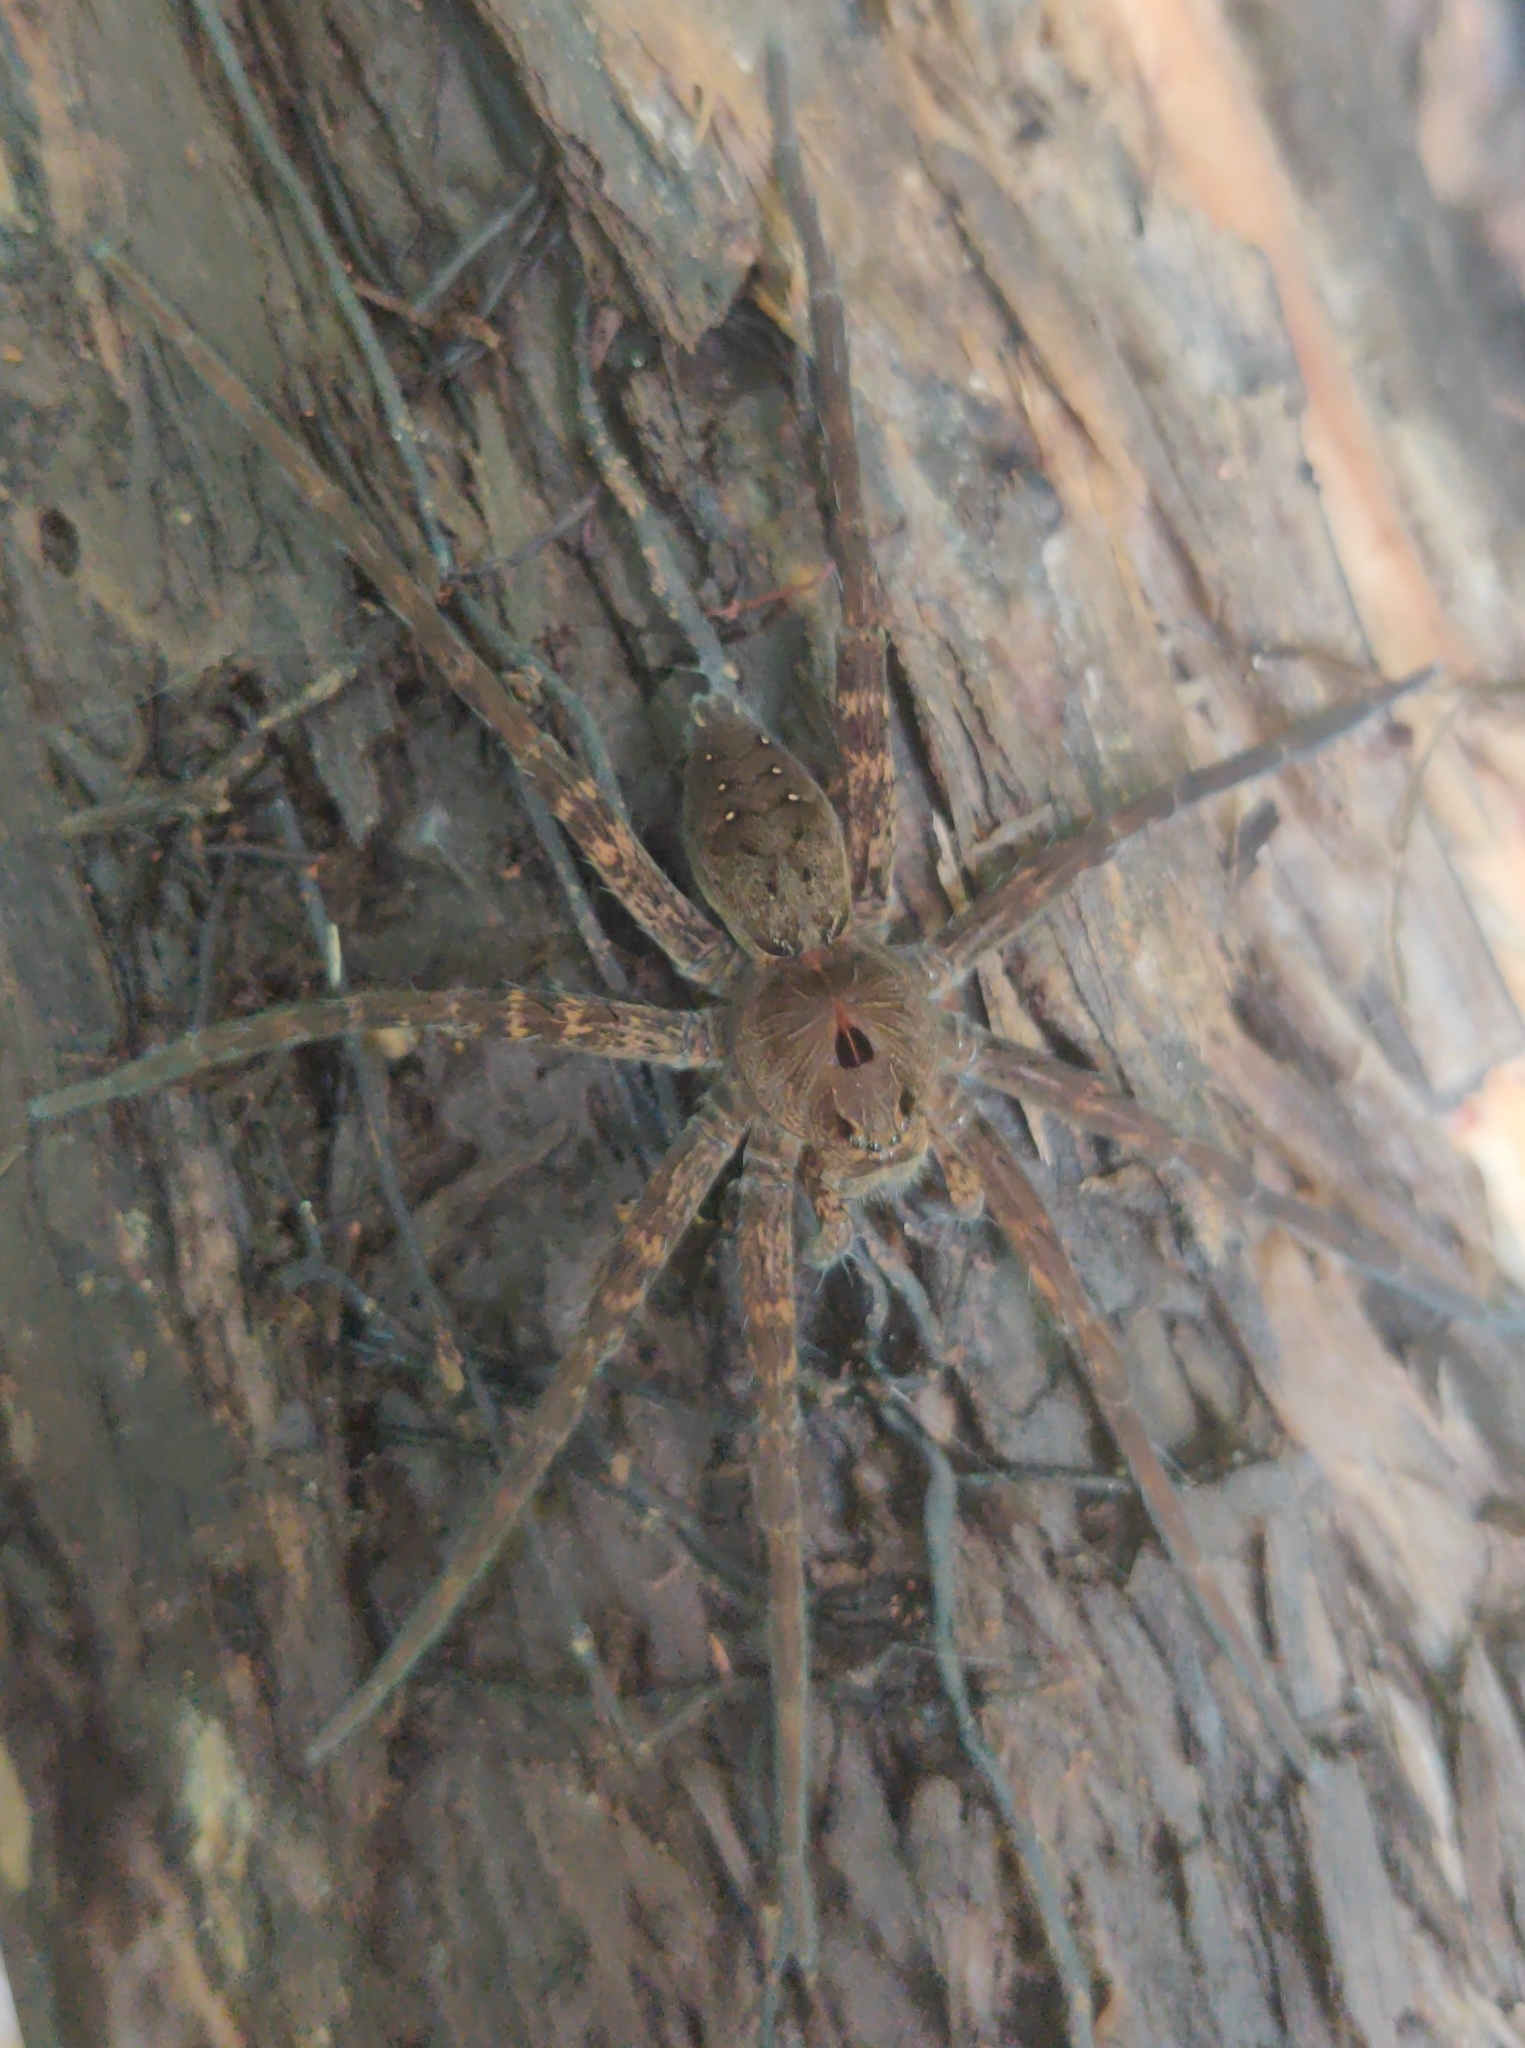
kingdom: Animalia
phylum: Arthropoda
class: Arachnida
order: Araneae
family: Pisauridae
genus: Dolomedes
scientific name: Dolomedes vittatus
